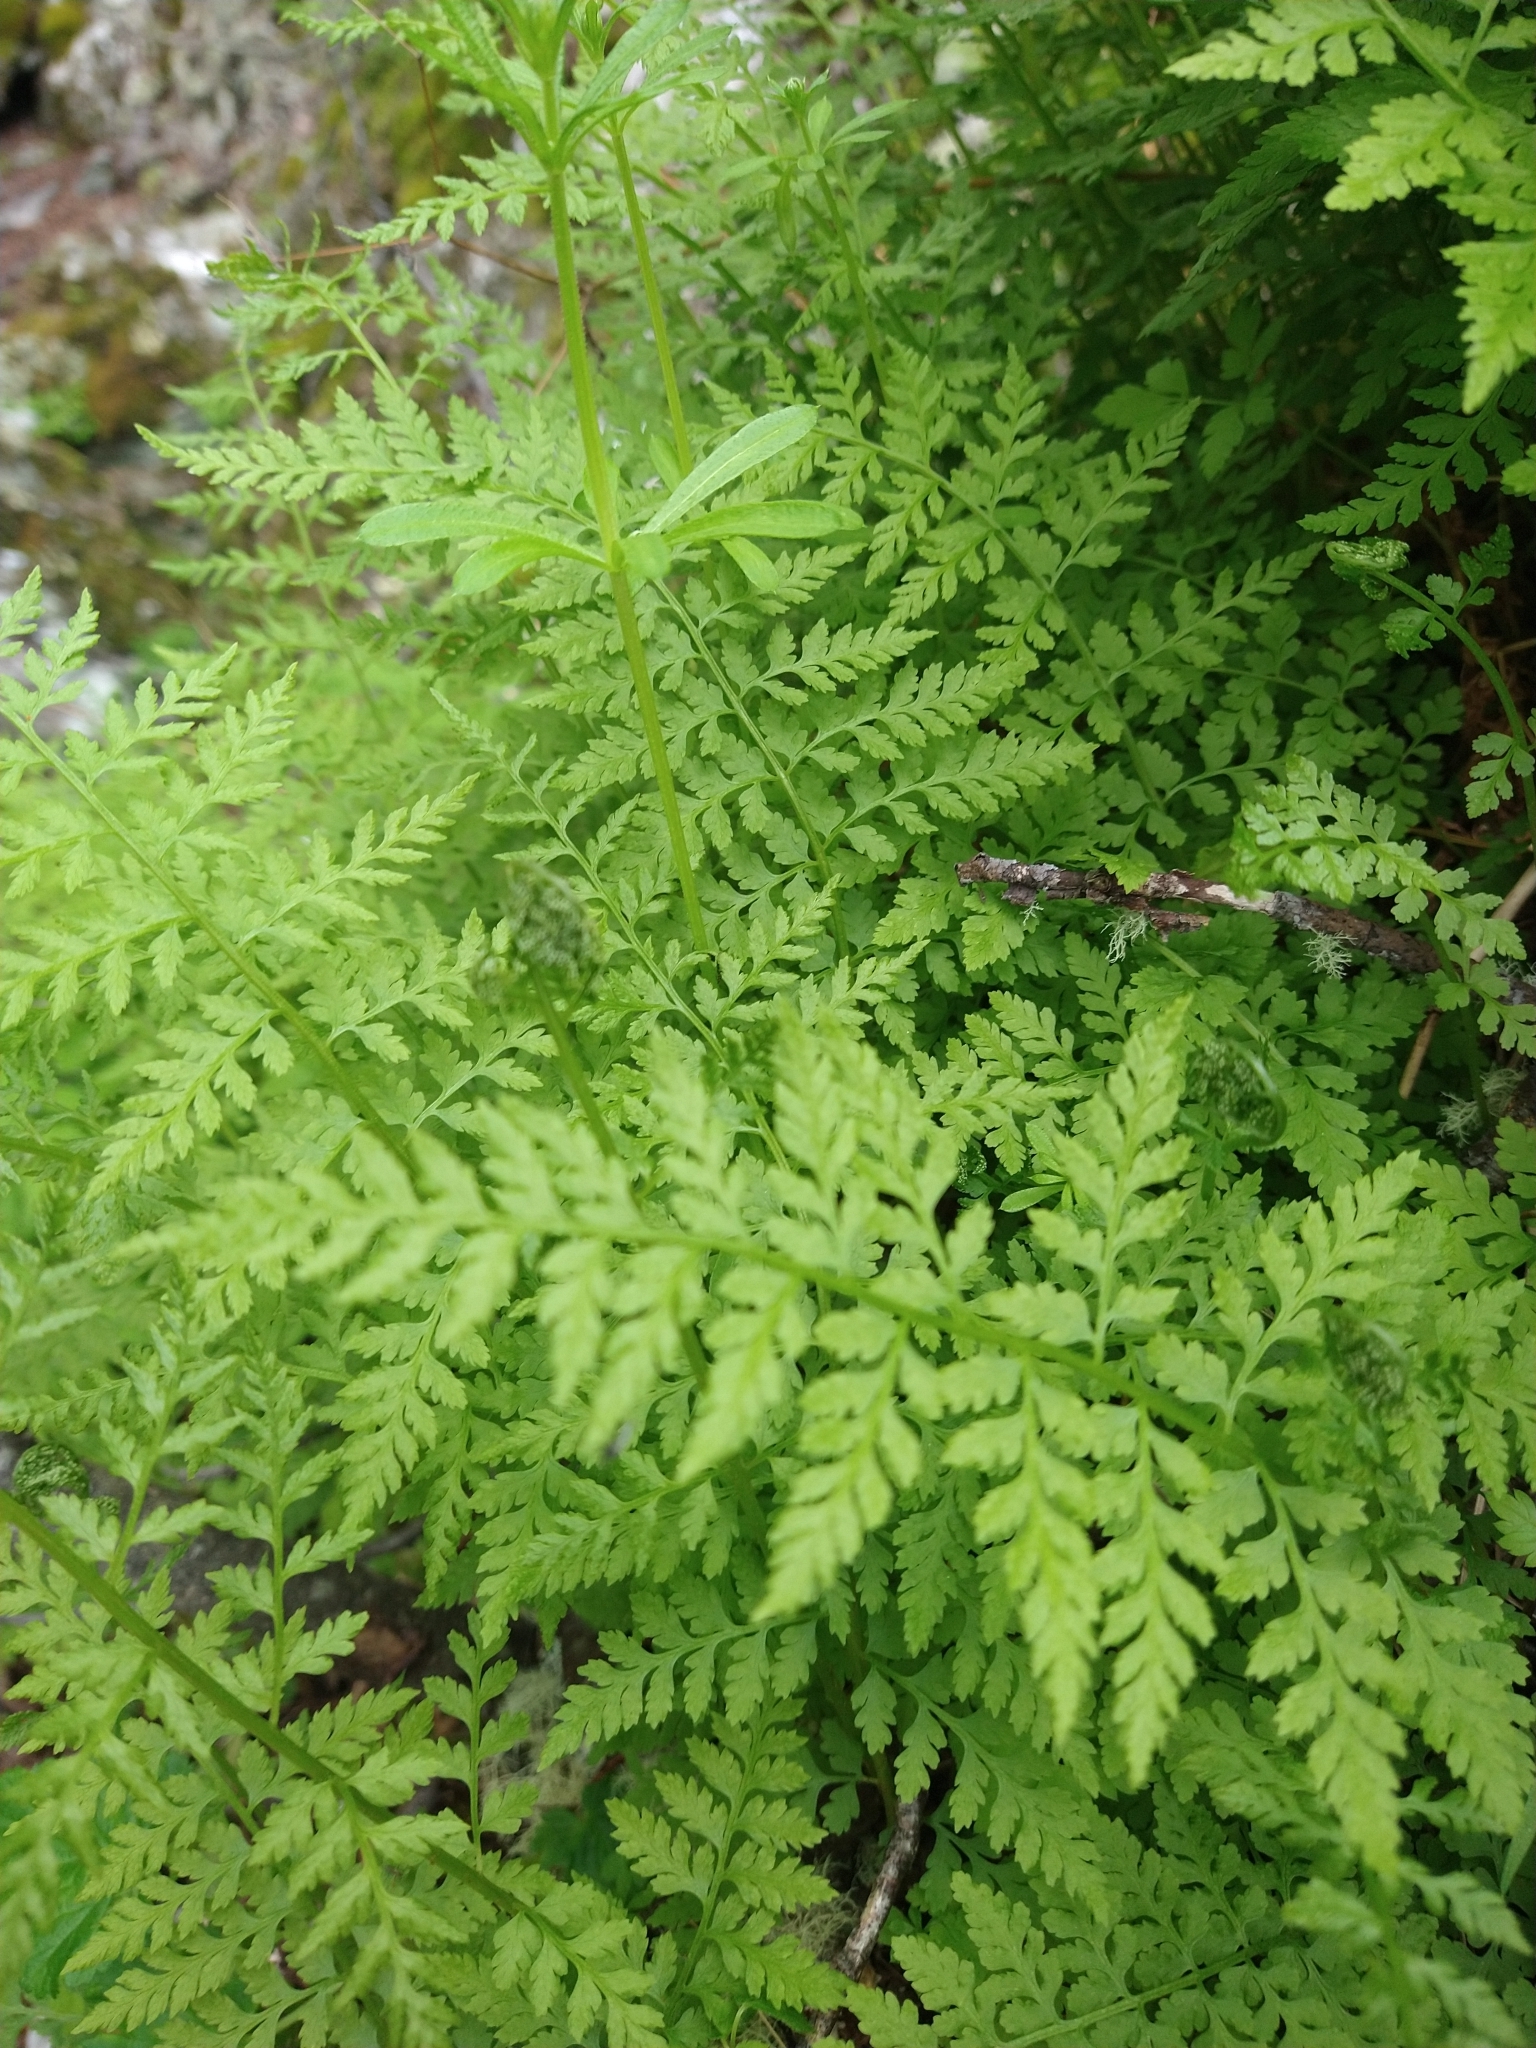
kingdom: Plantae
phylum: Tracheophyta
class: Polypodiopsida
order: Polypodiales
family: Cystopteridaceae
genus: Cystopteris
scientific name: Cystopteris fragilis
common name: Brittle bladder fern
